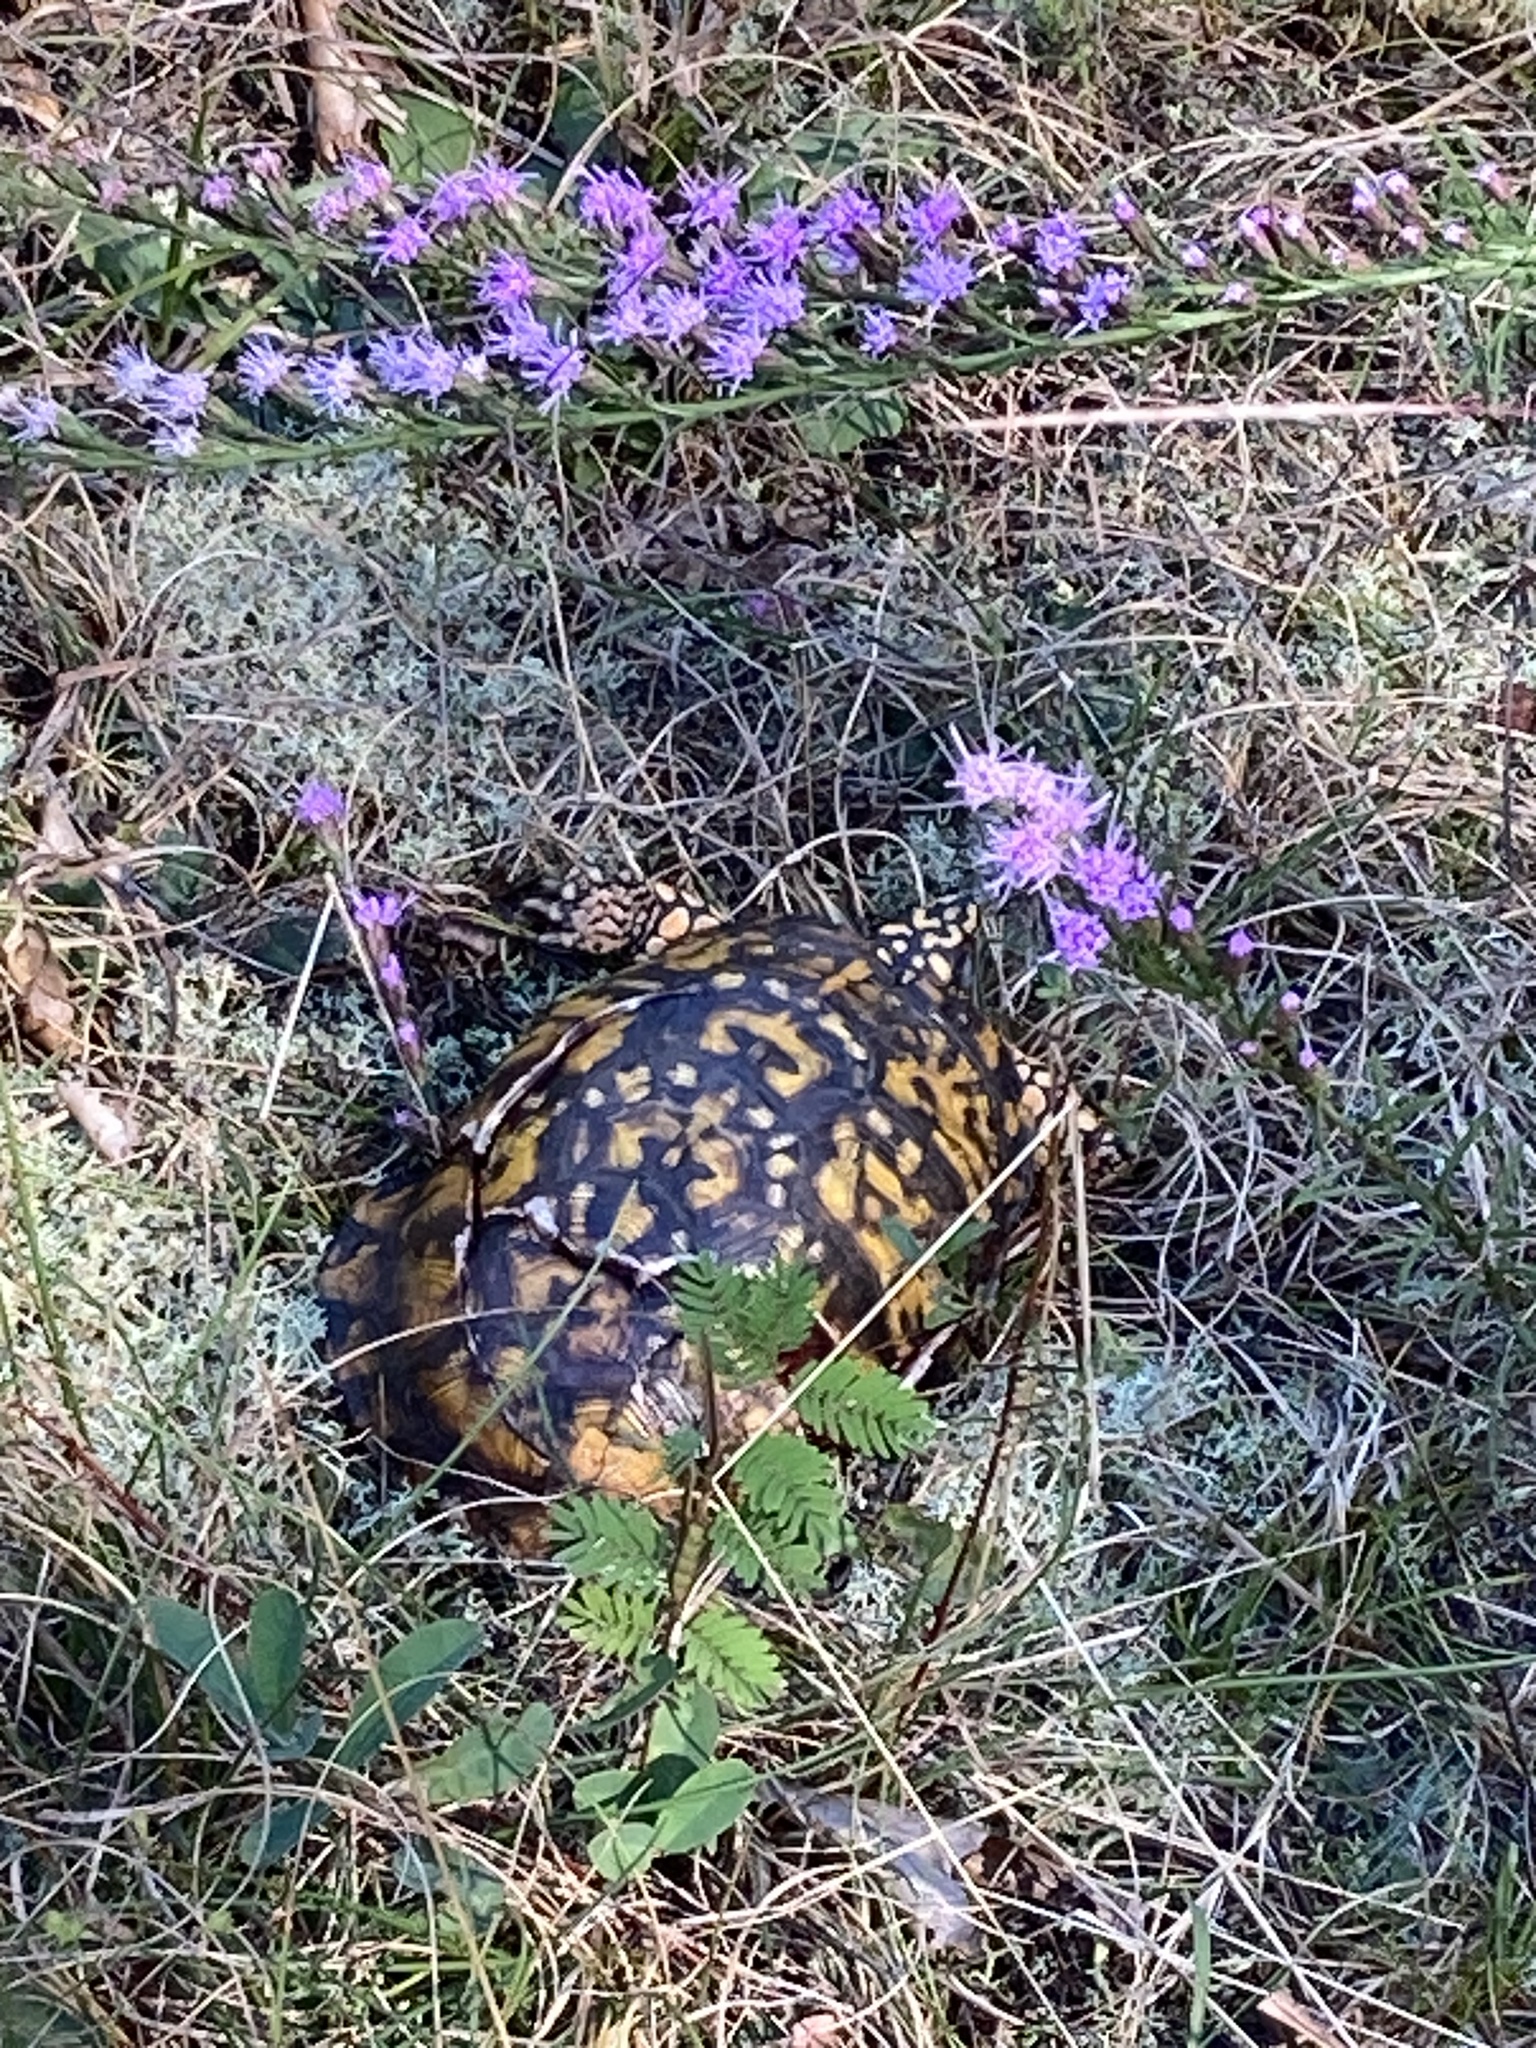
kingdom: Animalia
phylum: Chordata
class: Testudines
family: Emydidae
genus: Terrapene
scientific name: Terrapene carolina
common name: Common box turtle
